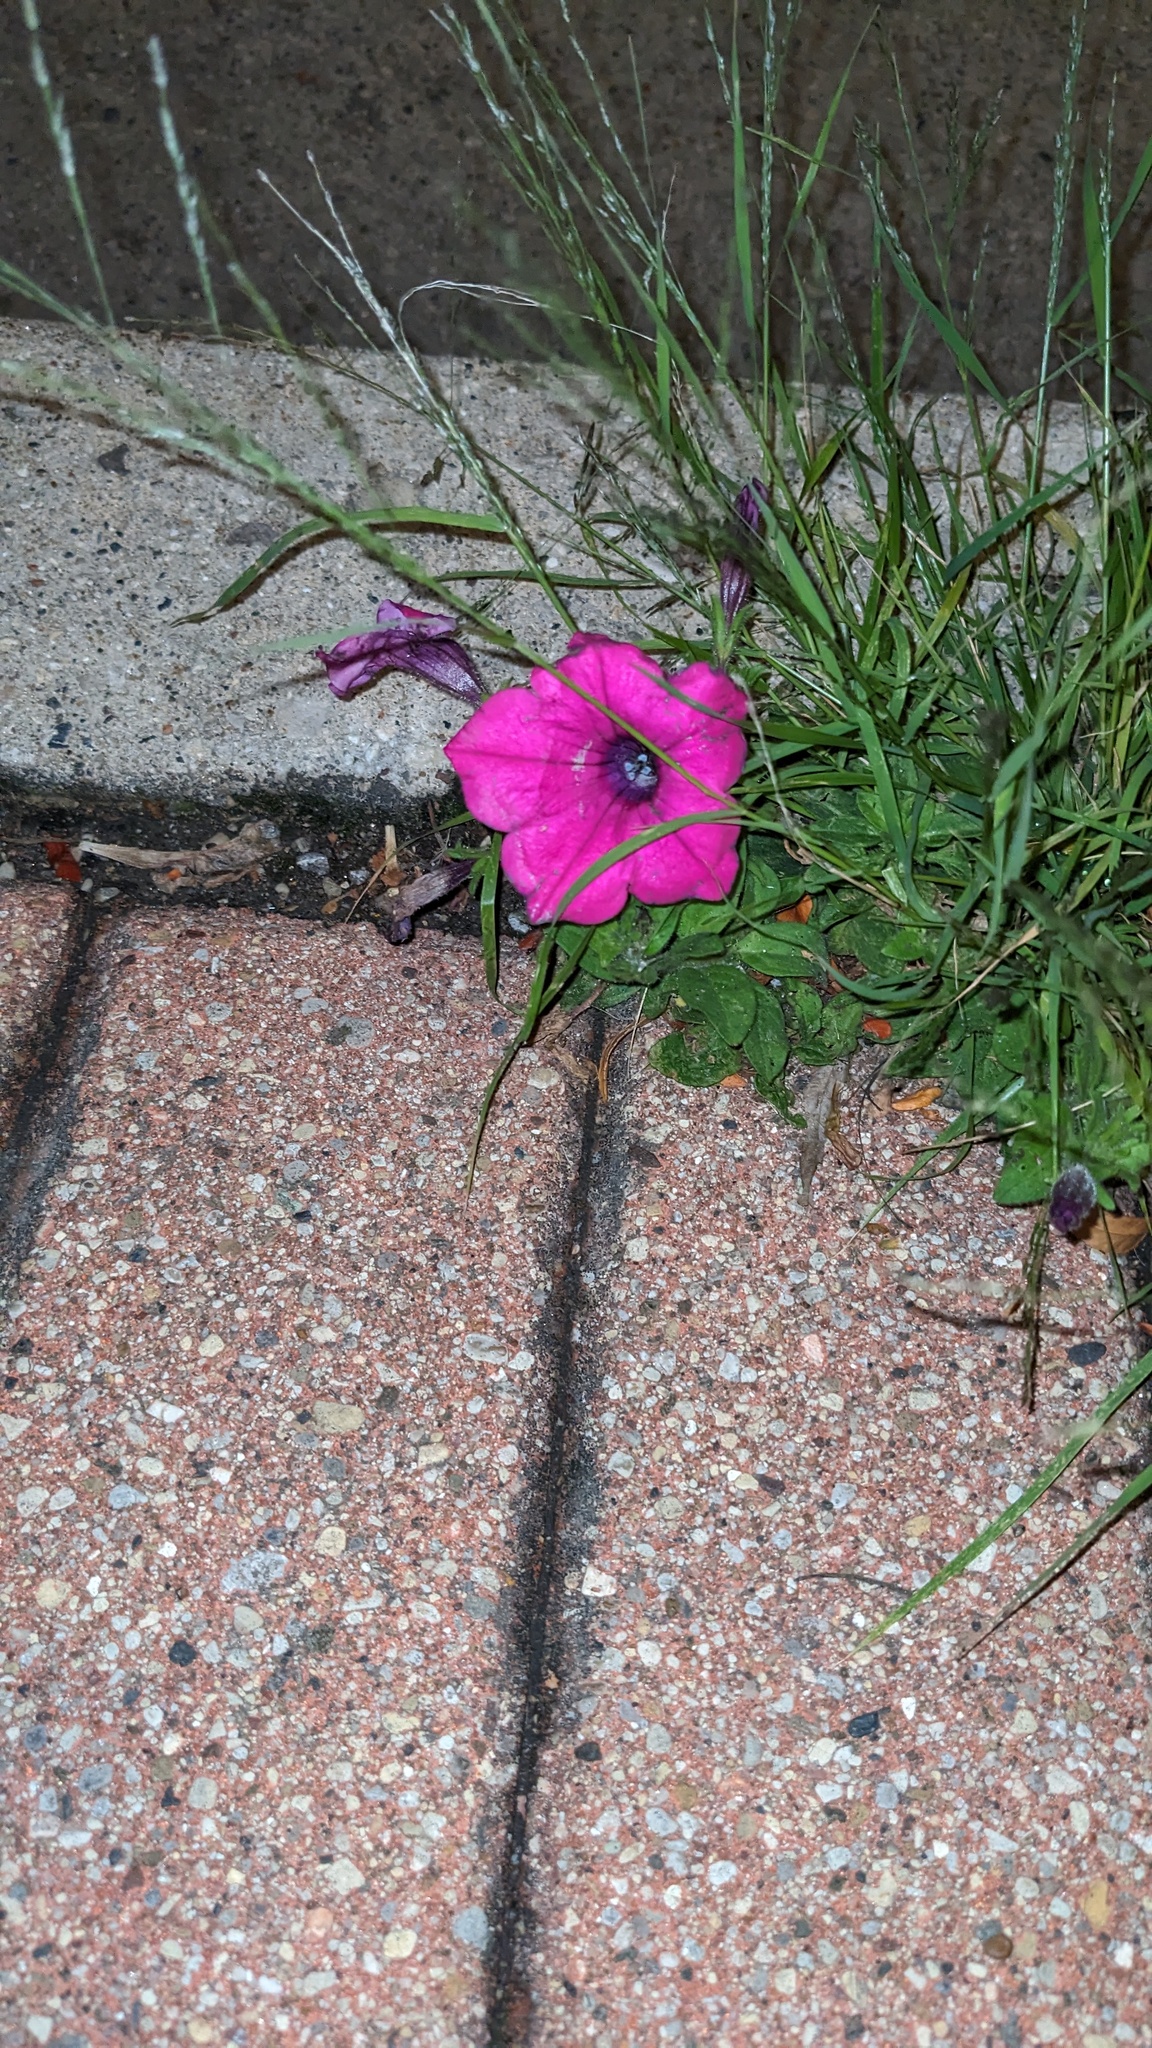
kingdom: Plantae
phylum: Tracheophyta
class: Magnoliopsida
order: Solanales
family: Solanaceae
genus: Petunia
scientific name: Petunia integrifolia
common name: Violet-flower petunia
